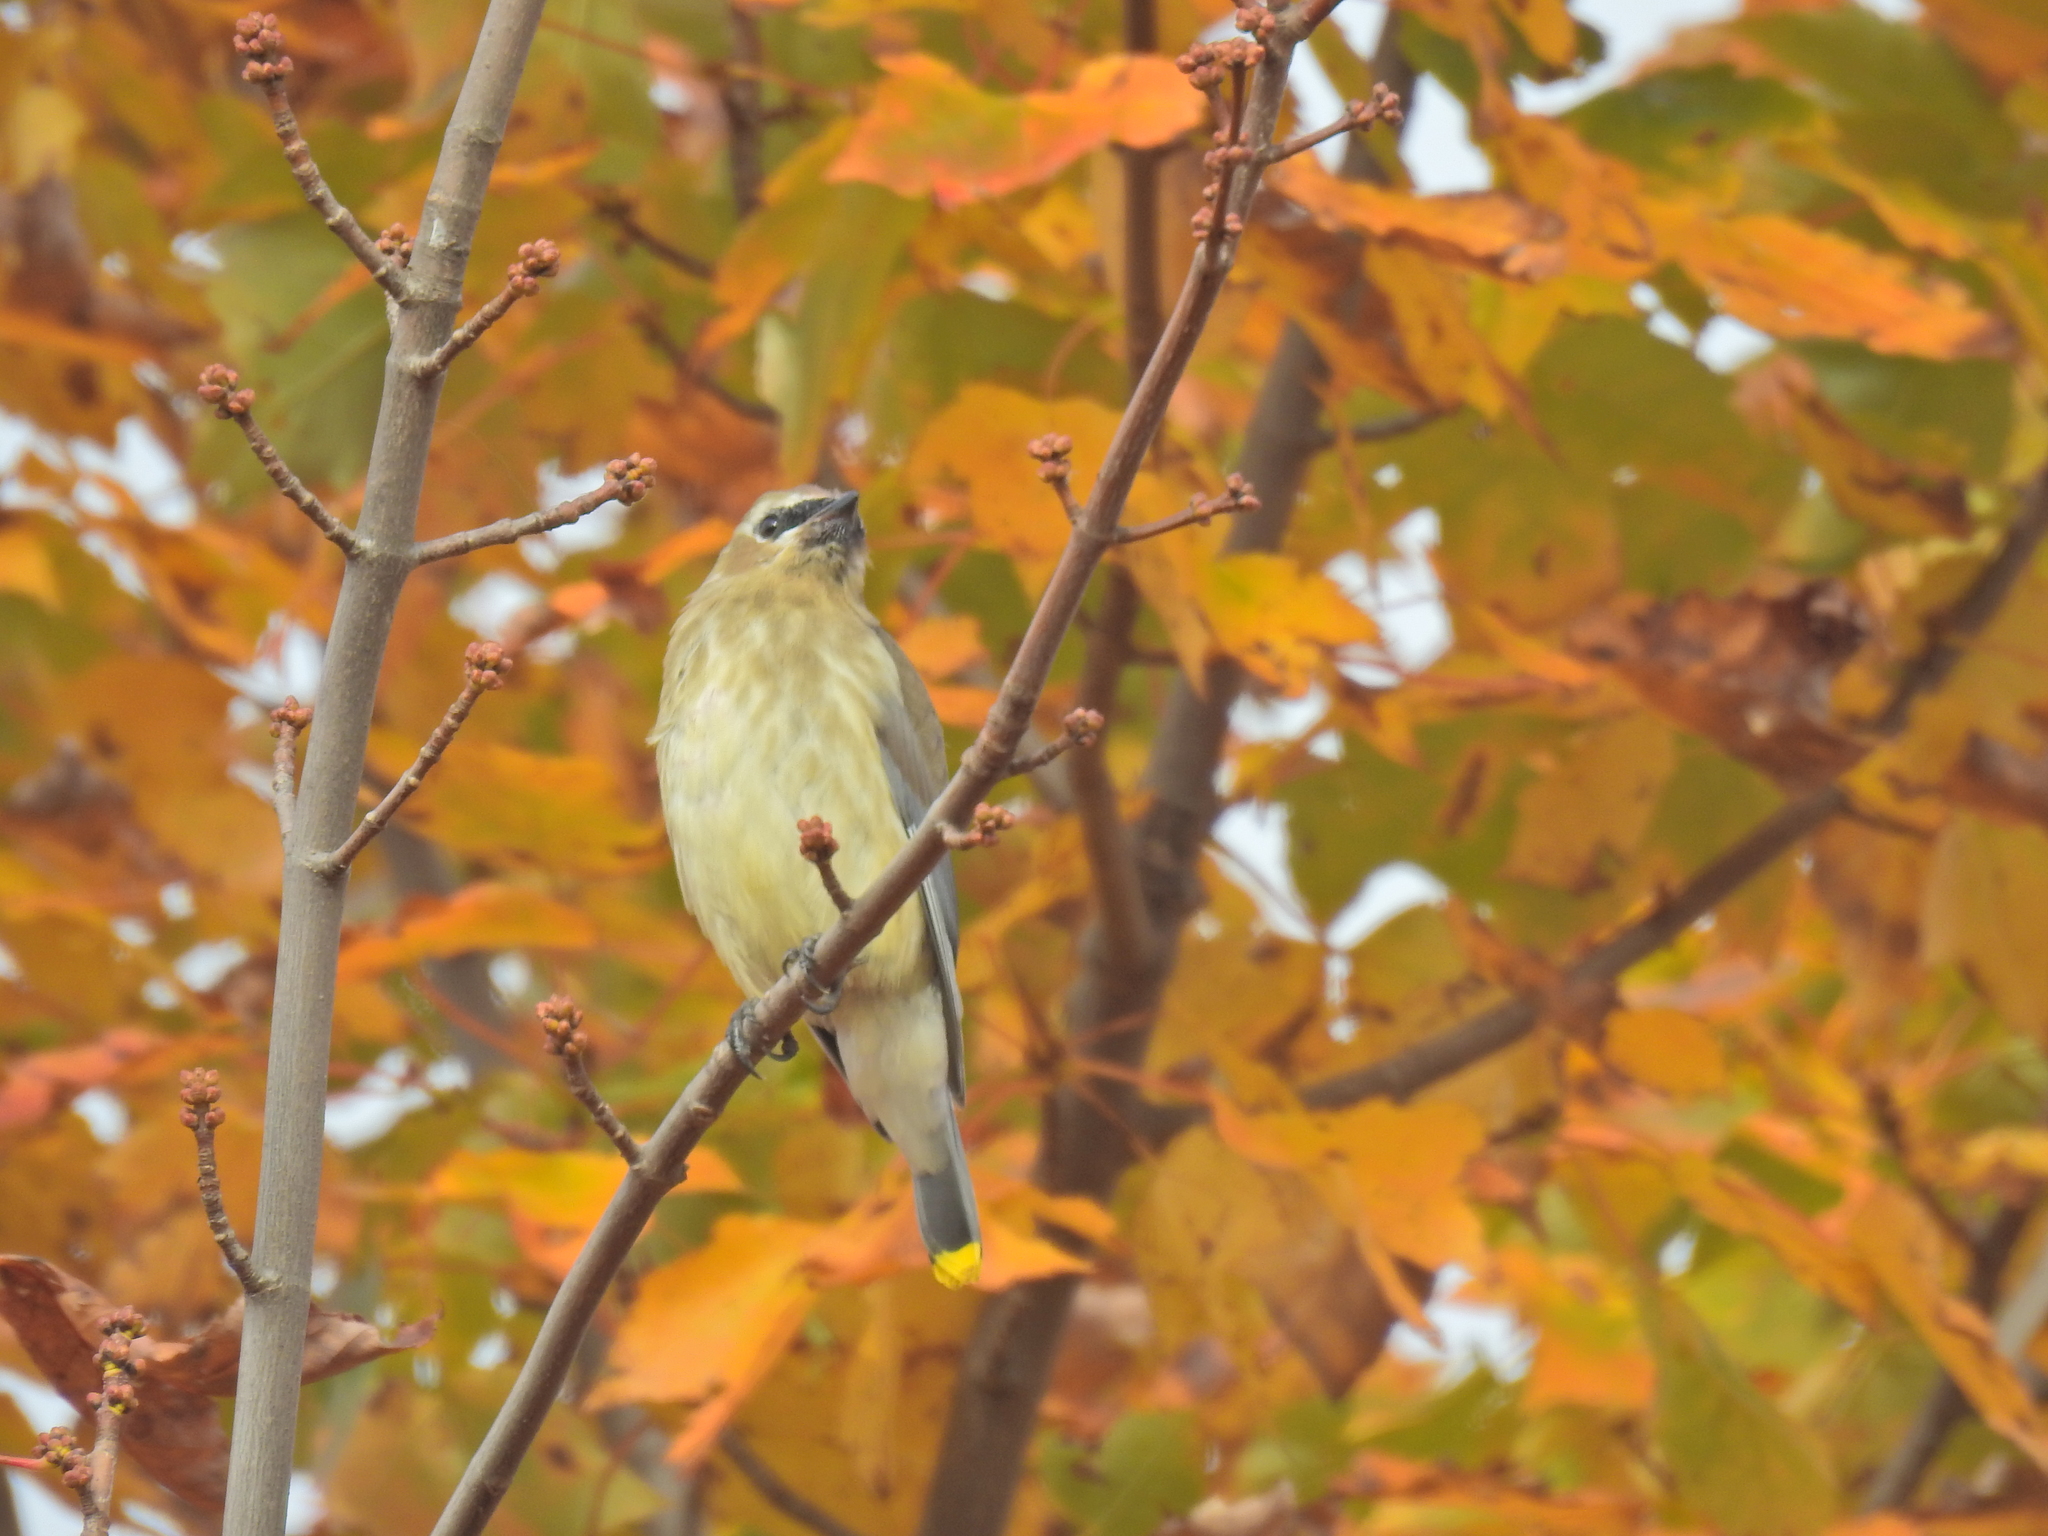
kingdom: Animalia
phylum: Chordata
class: Aves
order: Passeriformes
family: Bombycillidae
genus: Bombycilla
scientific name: Bombycilla cedrorum
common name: Cedar waxwing
